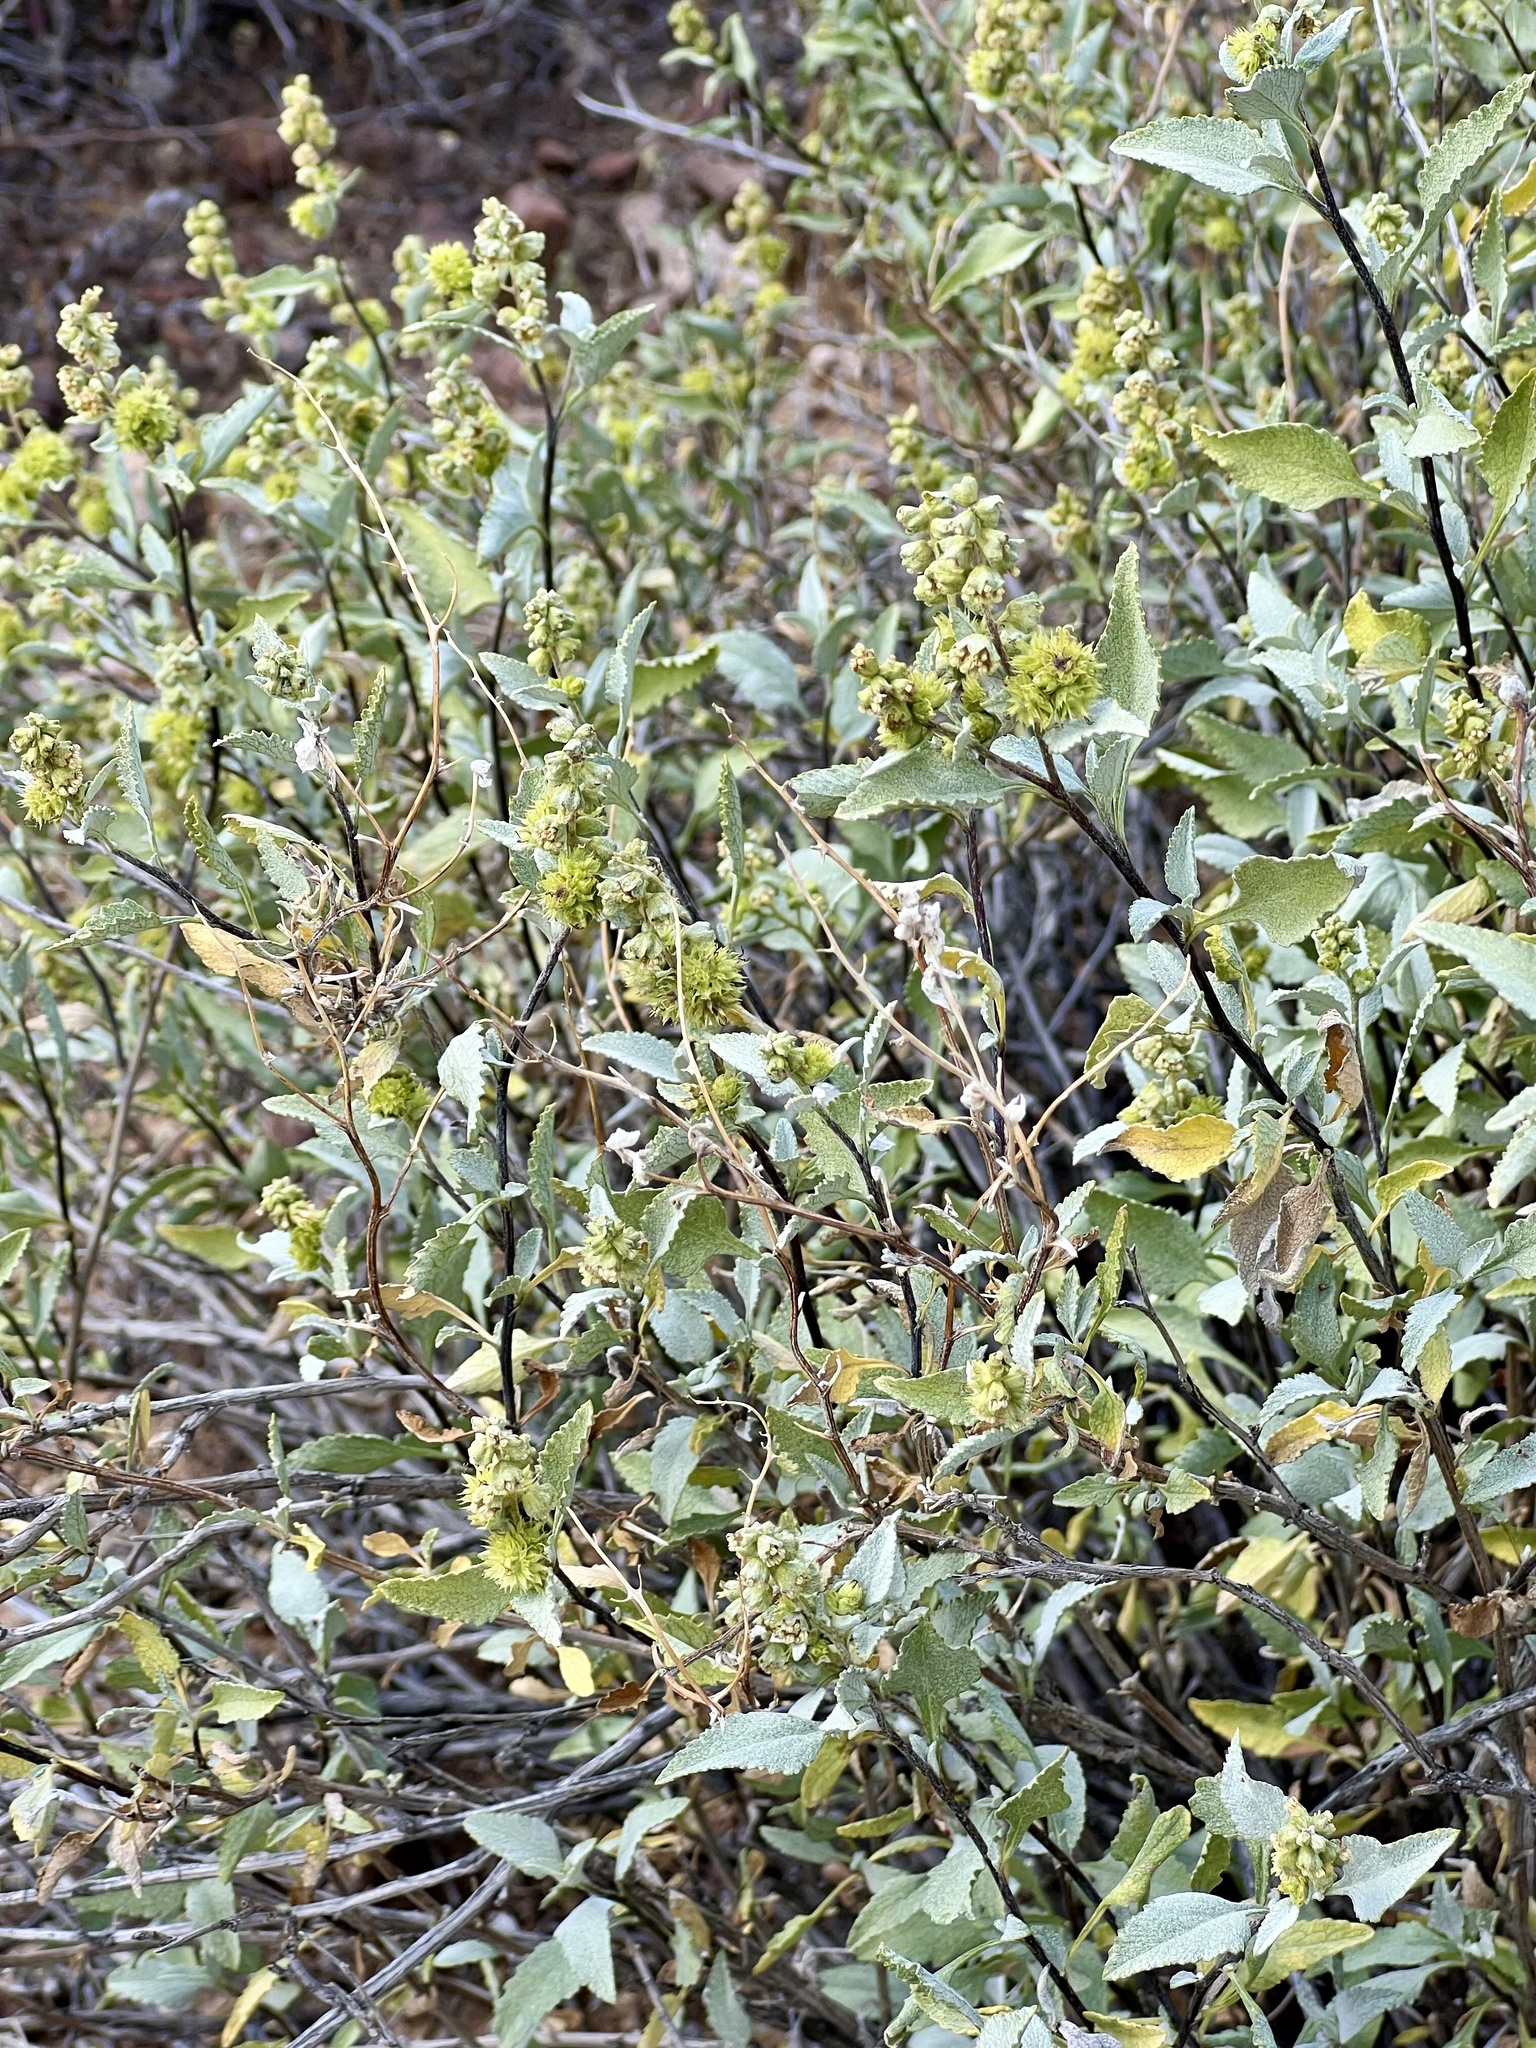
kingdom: Plantae
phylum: Tracheophyta
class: Magnoliopsida
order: Asterales
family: Asteraceae
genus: Ambrosia
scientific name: Ambrosia deltoidea
